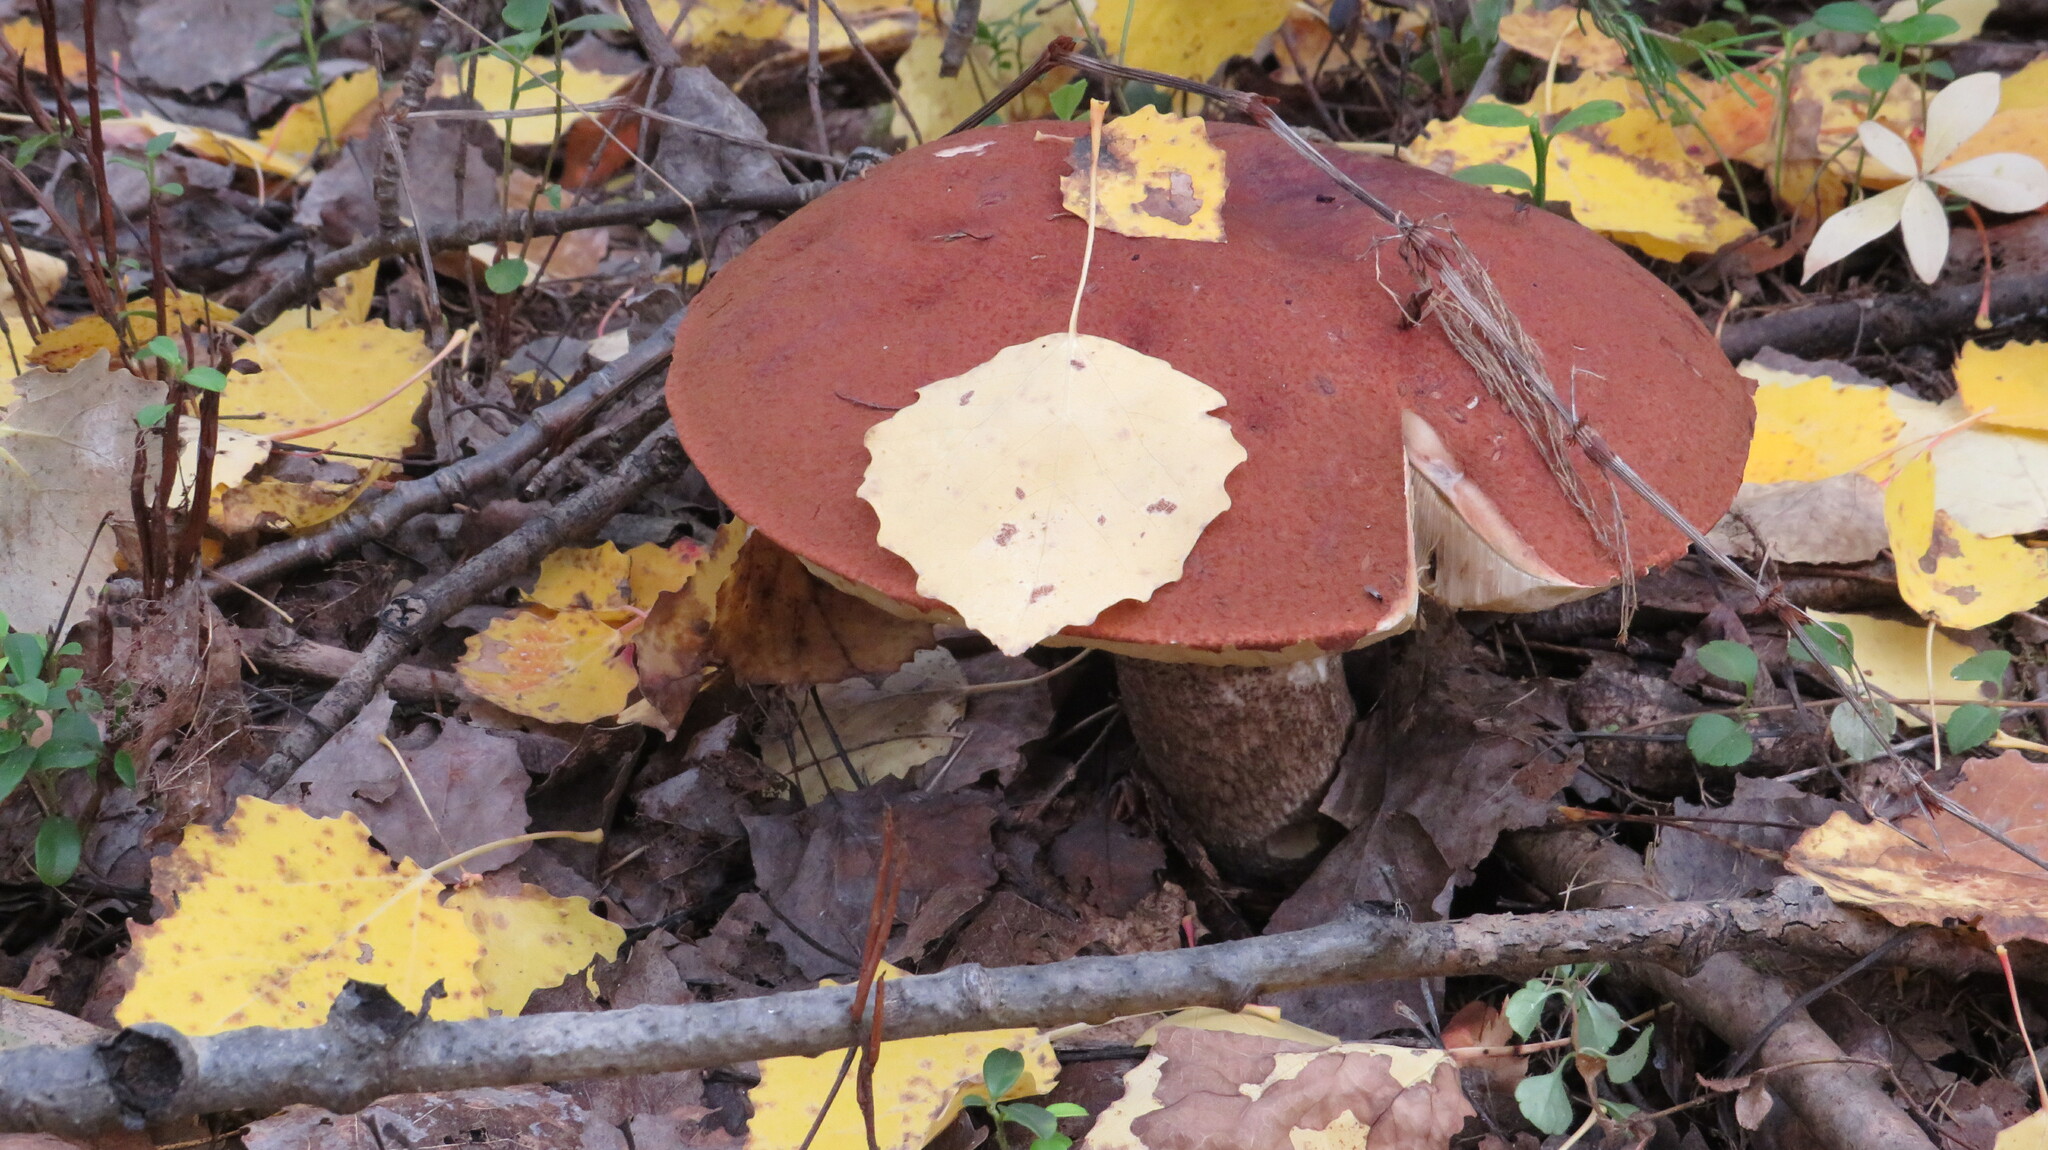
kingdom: Fungi
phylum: Basidiomycota
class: Agaricomycetes
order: Boletales
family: Boletaceae
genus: Leccinum
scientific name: Leccinum aurantiacum
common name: Orange bolete
